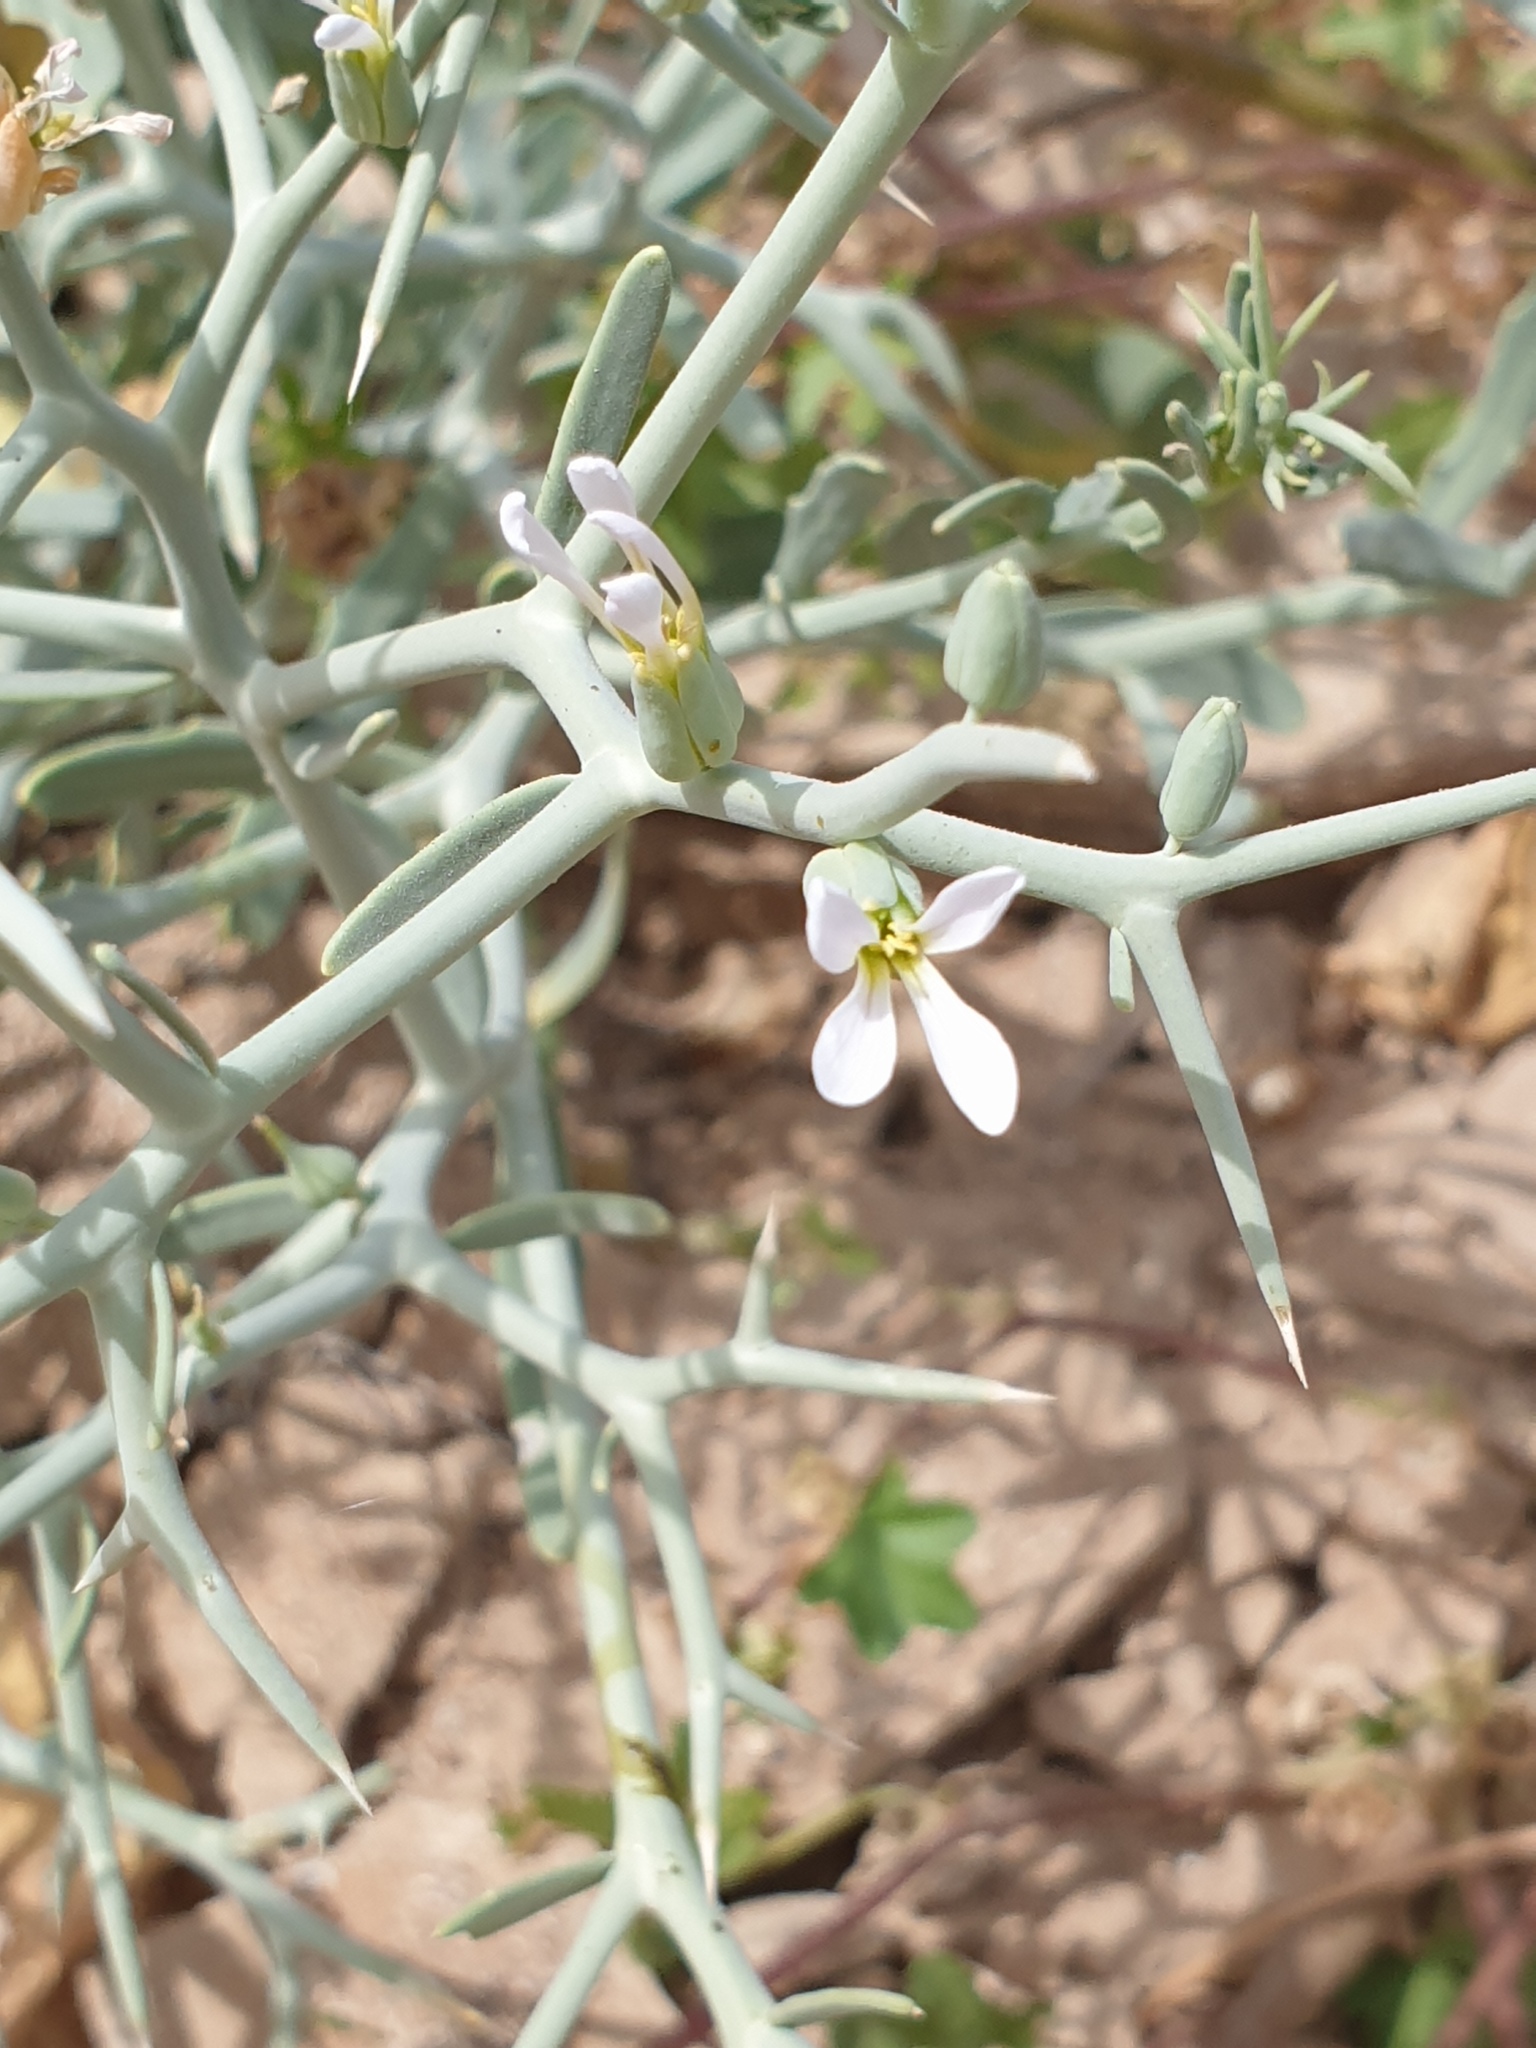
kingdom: Plantae
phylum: Tracheophyta
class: Magnoliopsida
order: Brassicales
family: Brassicaceae
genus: Zilla
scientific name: Zilla spinosa
